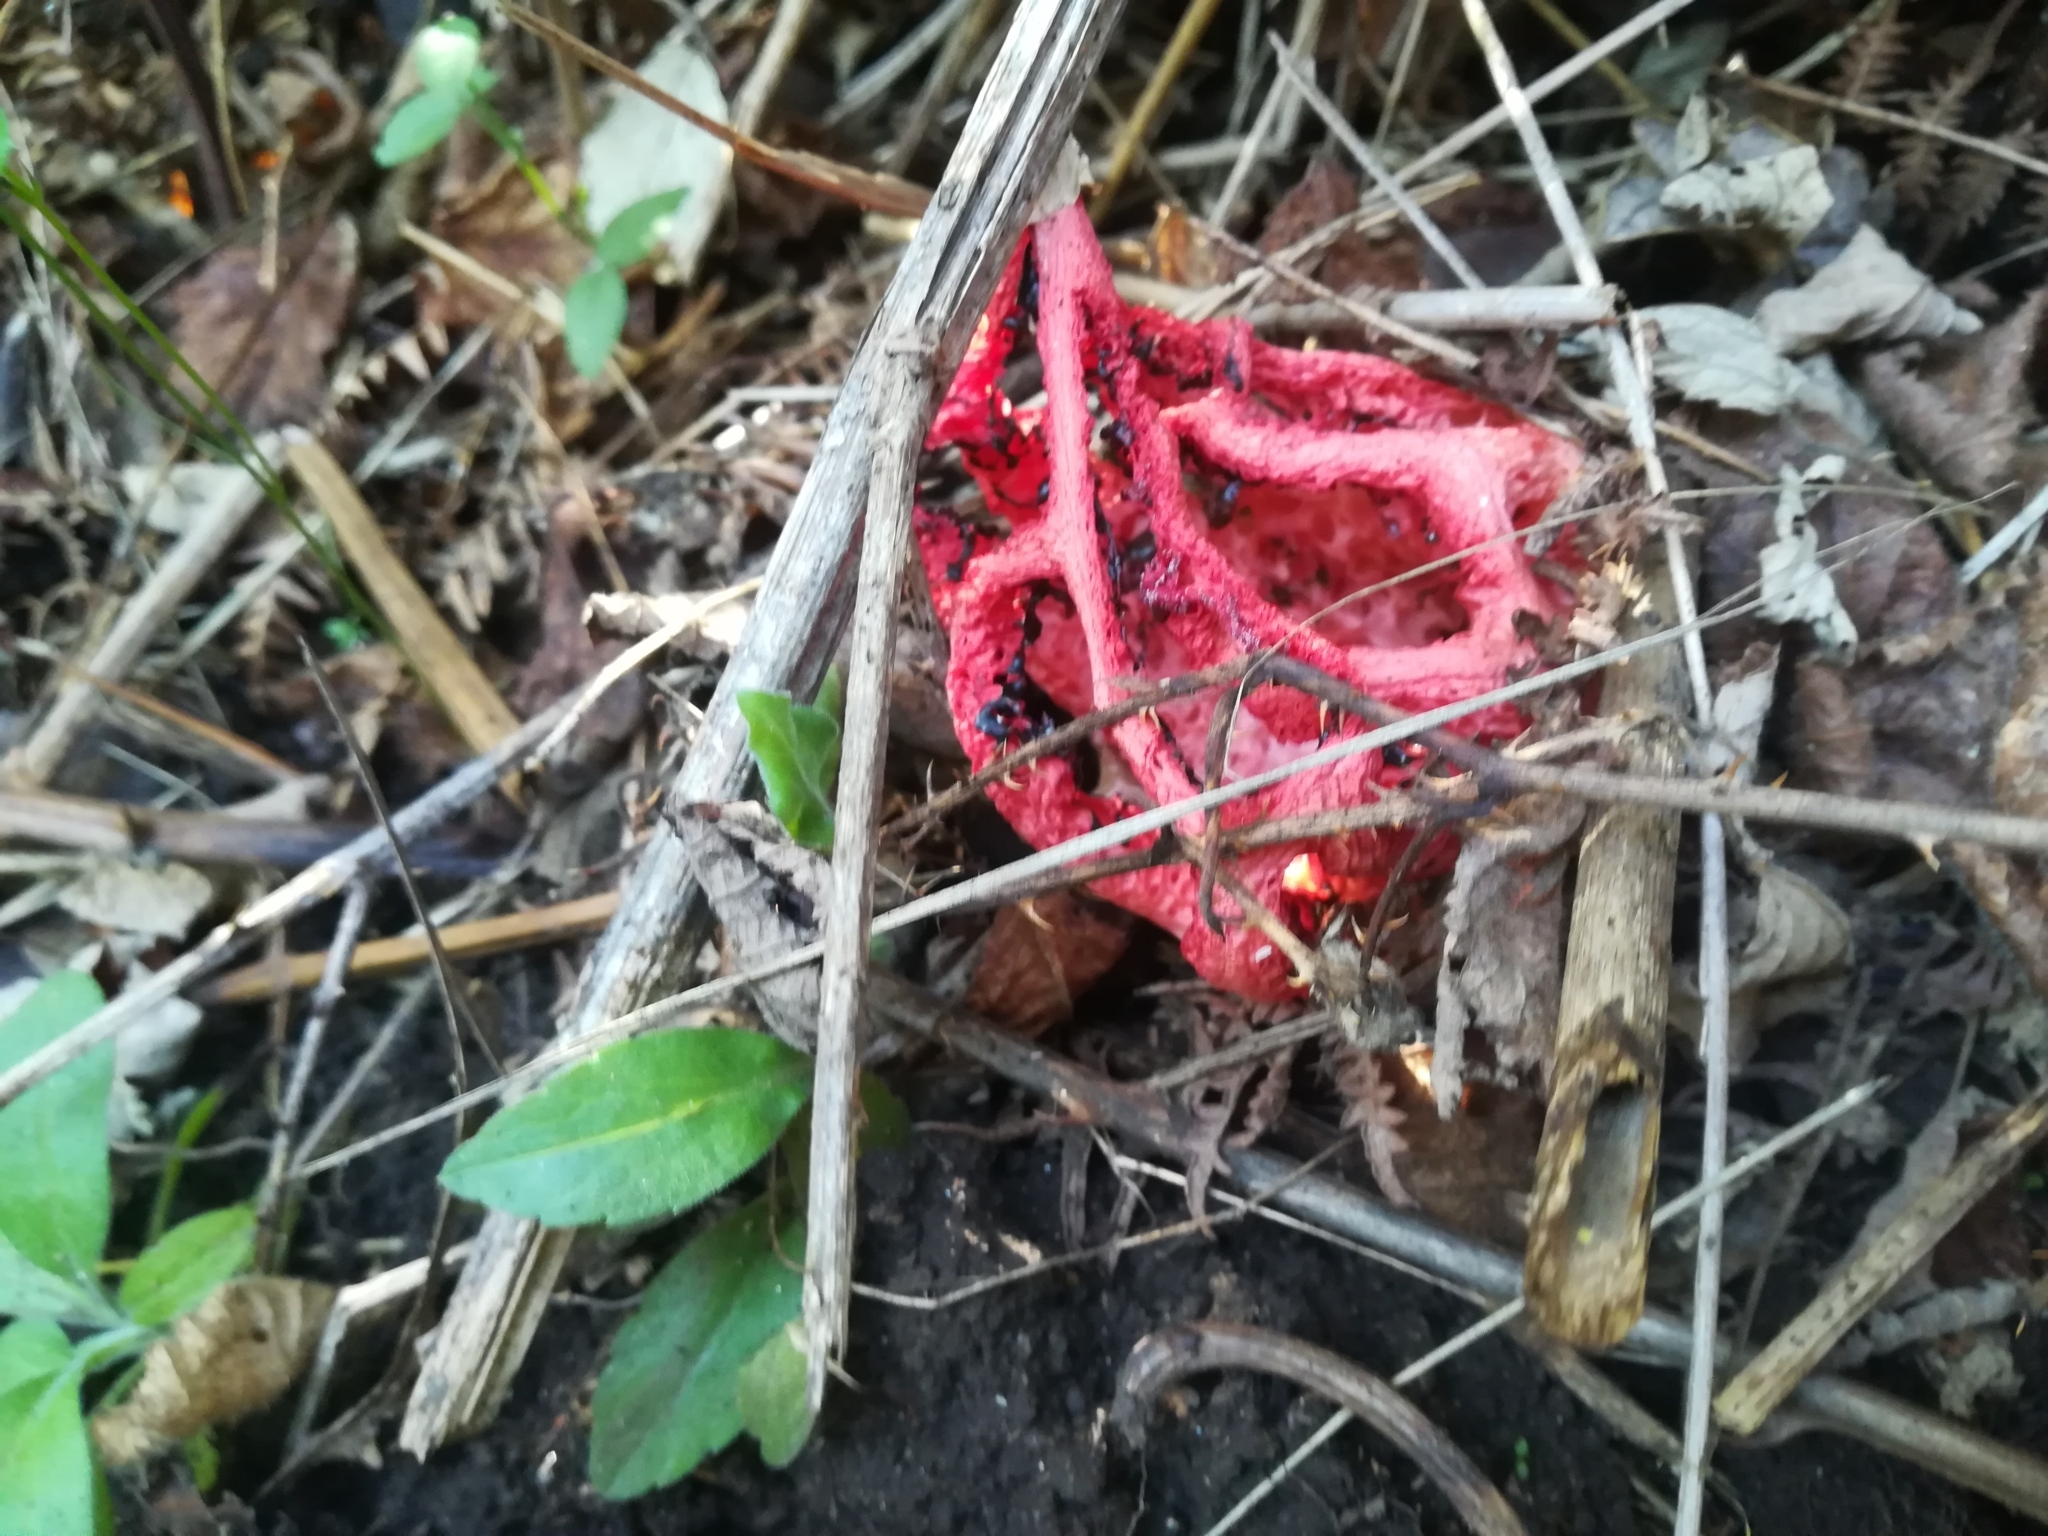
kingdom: Fungi
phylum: Basidiomycota
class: Agaricomycetes
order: Phallales
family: Phallaceae
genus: Clathrus
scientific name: Clathrus ruber
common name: Red cage
